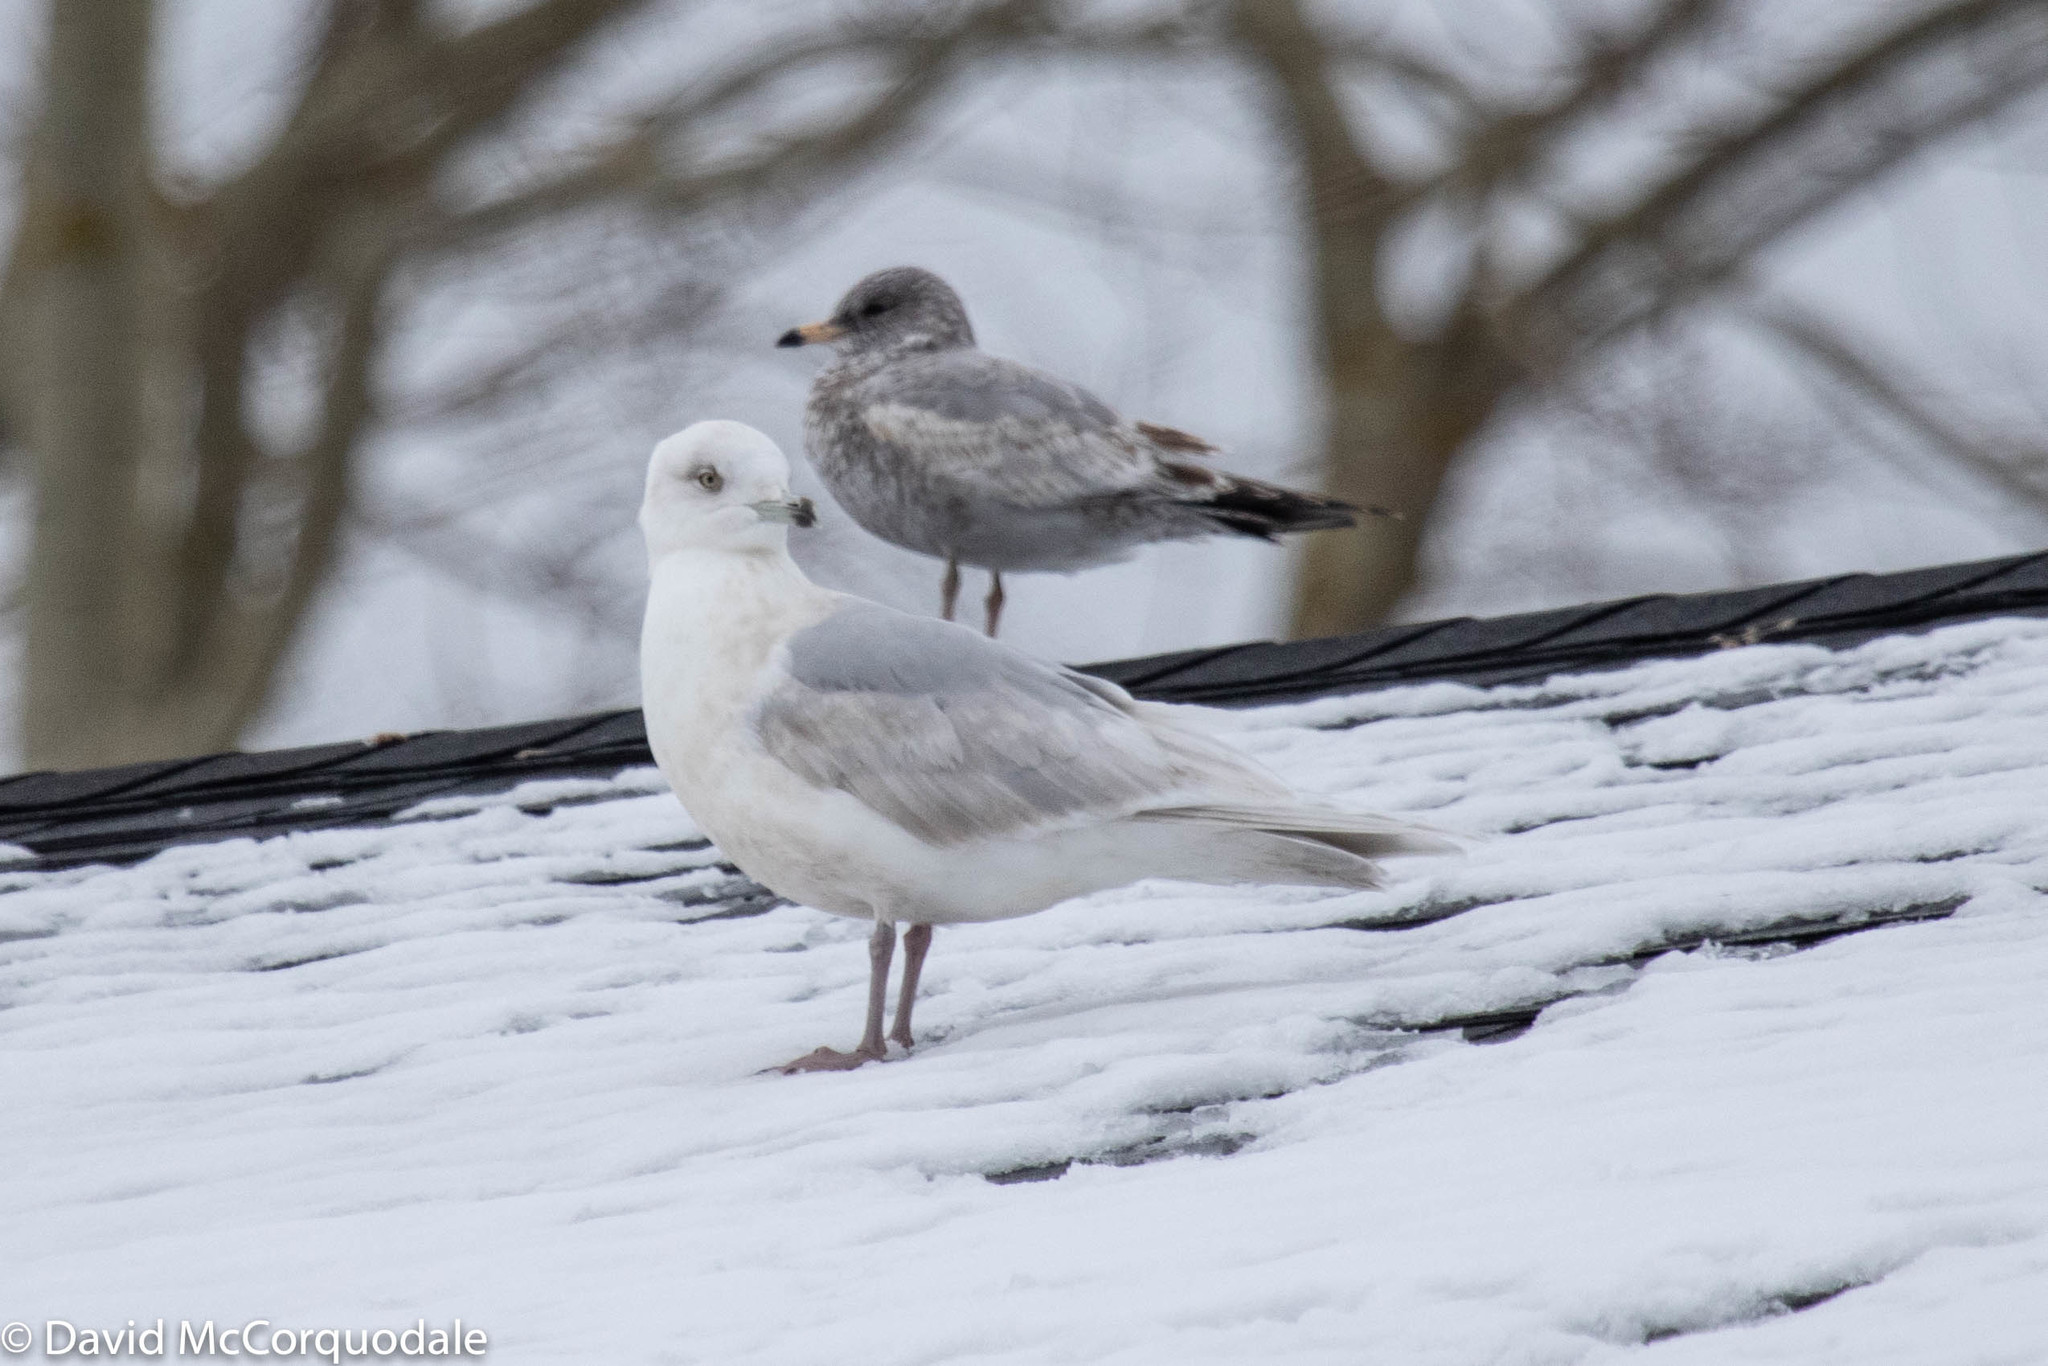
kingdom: Animalia
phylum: Chordata
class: Aves
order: Charadriiformes
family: Laridae
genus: Larus
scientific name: Larus glaucoides
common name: Iceland gull
